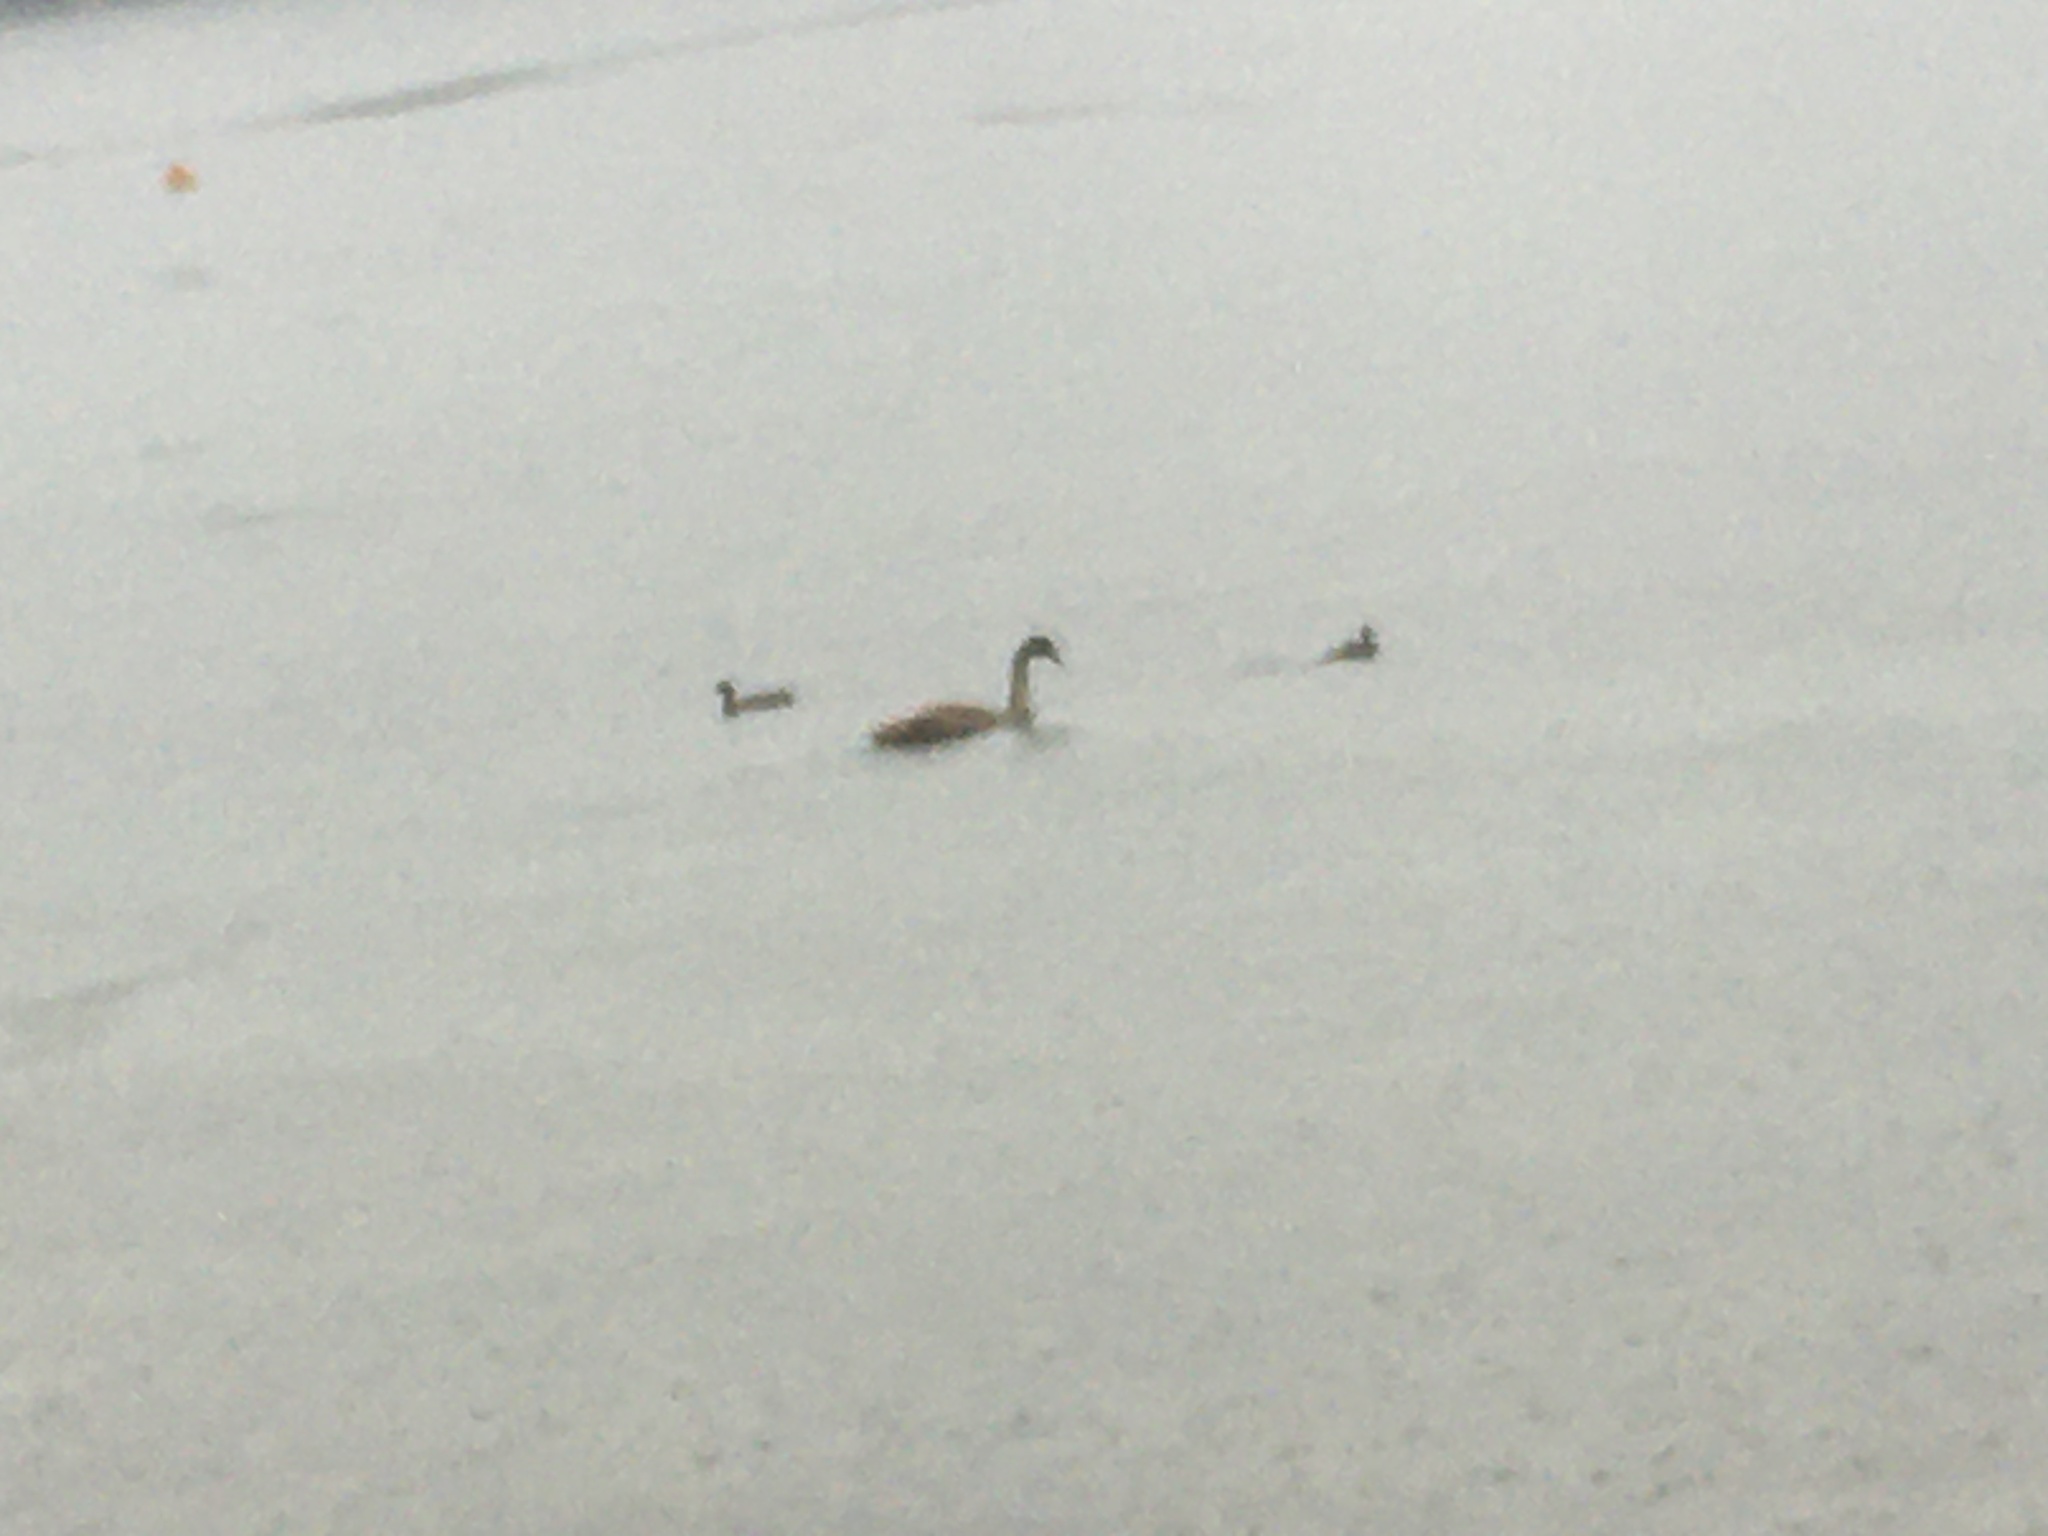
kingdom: Animalia
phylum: Chordata
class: Aves
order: Anseriformes
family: Anatidae
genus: Cygnus
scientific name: Cygnus olor
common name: Mute swan
